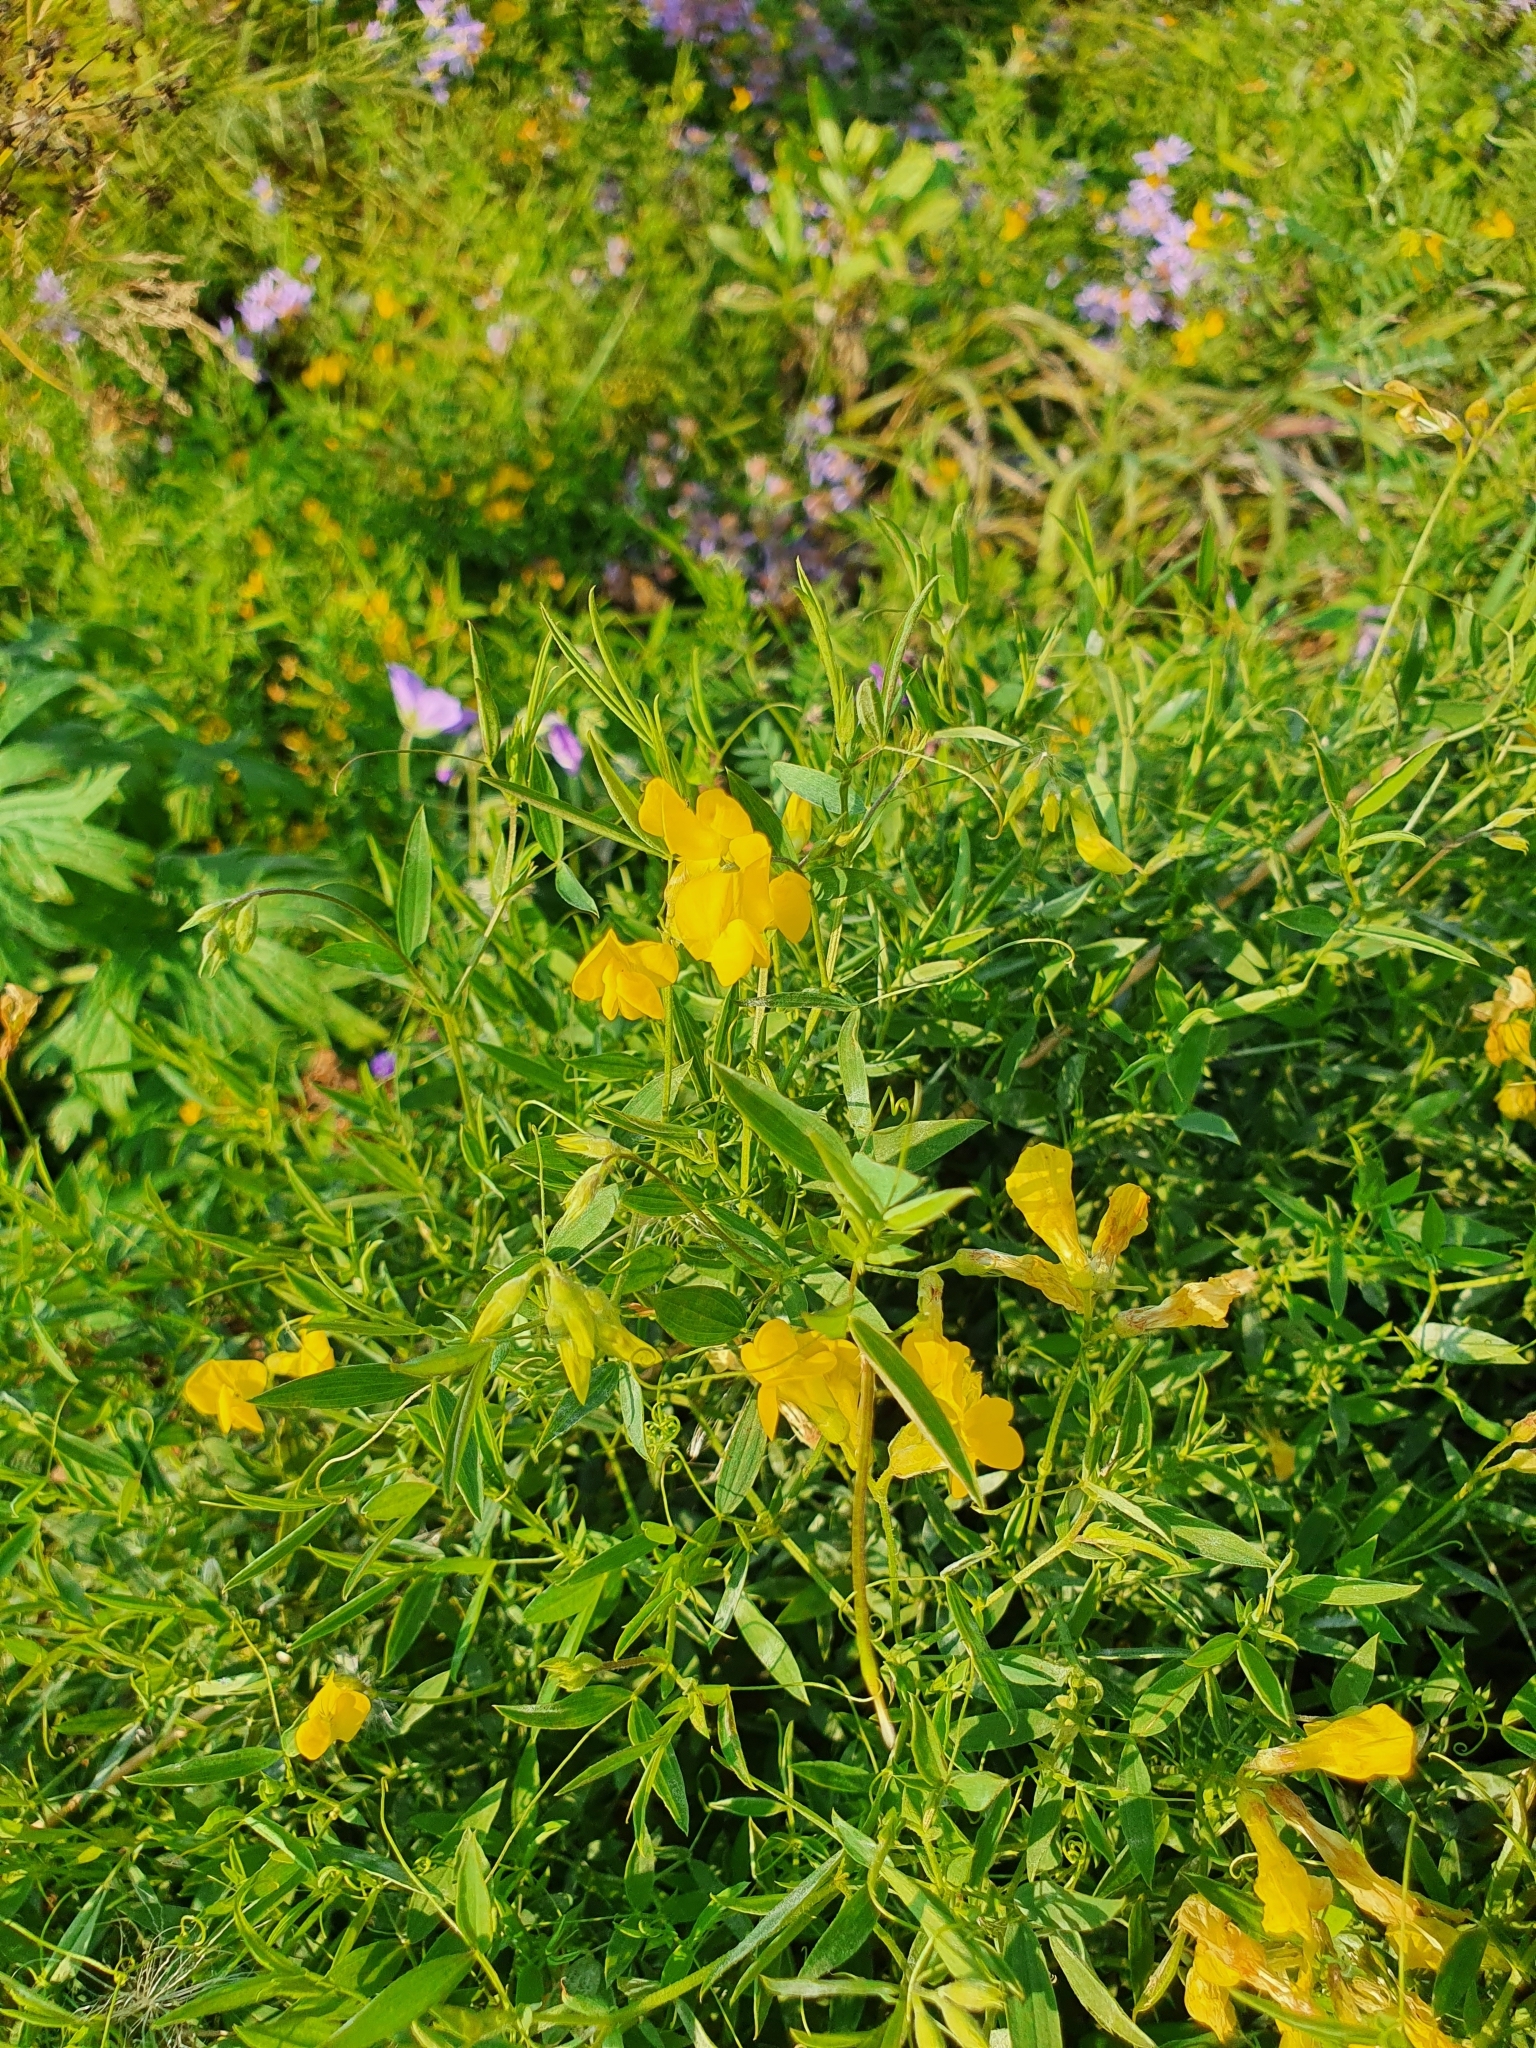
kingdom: Plantae
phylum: Tracheophyta
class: Magnoliopsida
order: Fabales
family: Fabaceae
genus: Lathyrus
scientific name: Lathyrus pratensis
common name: Meadow vetchling
